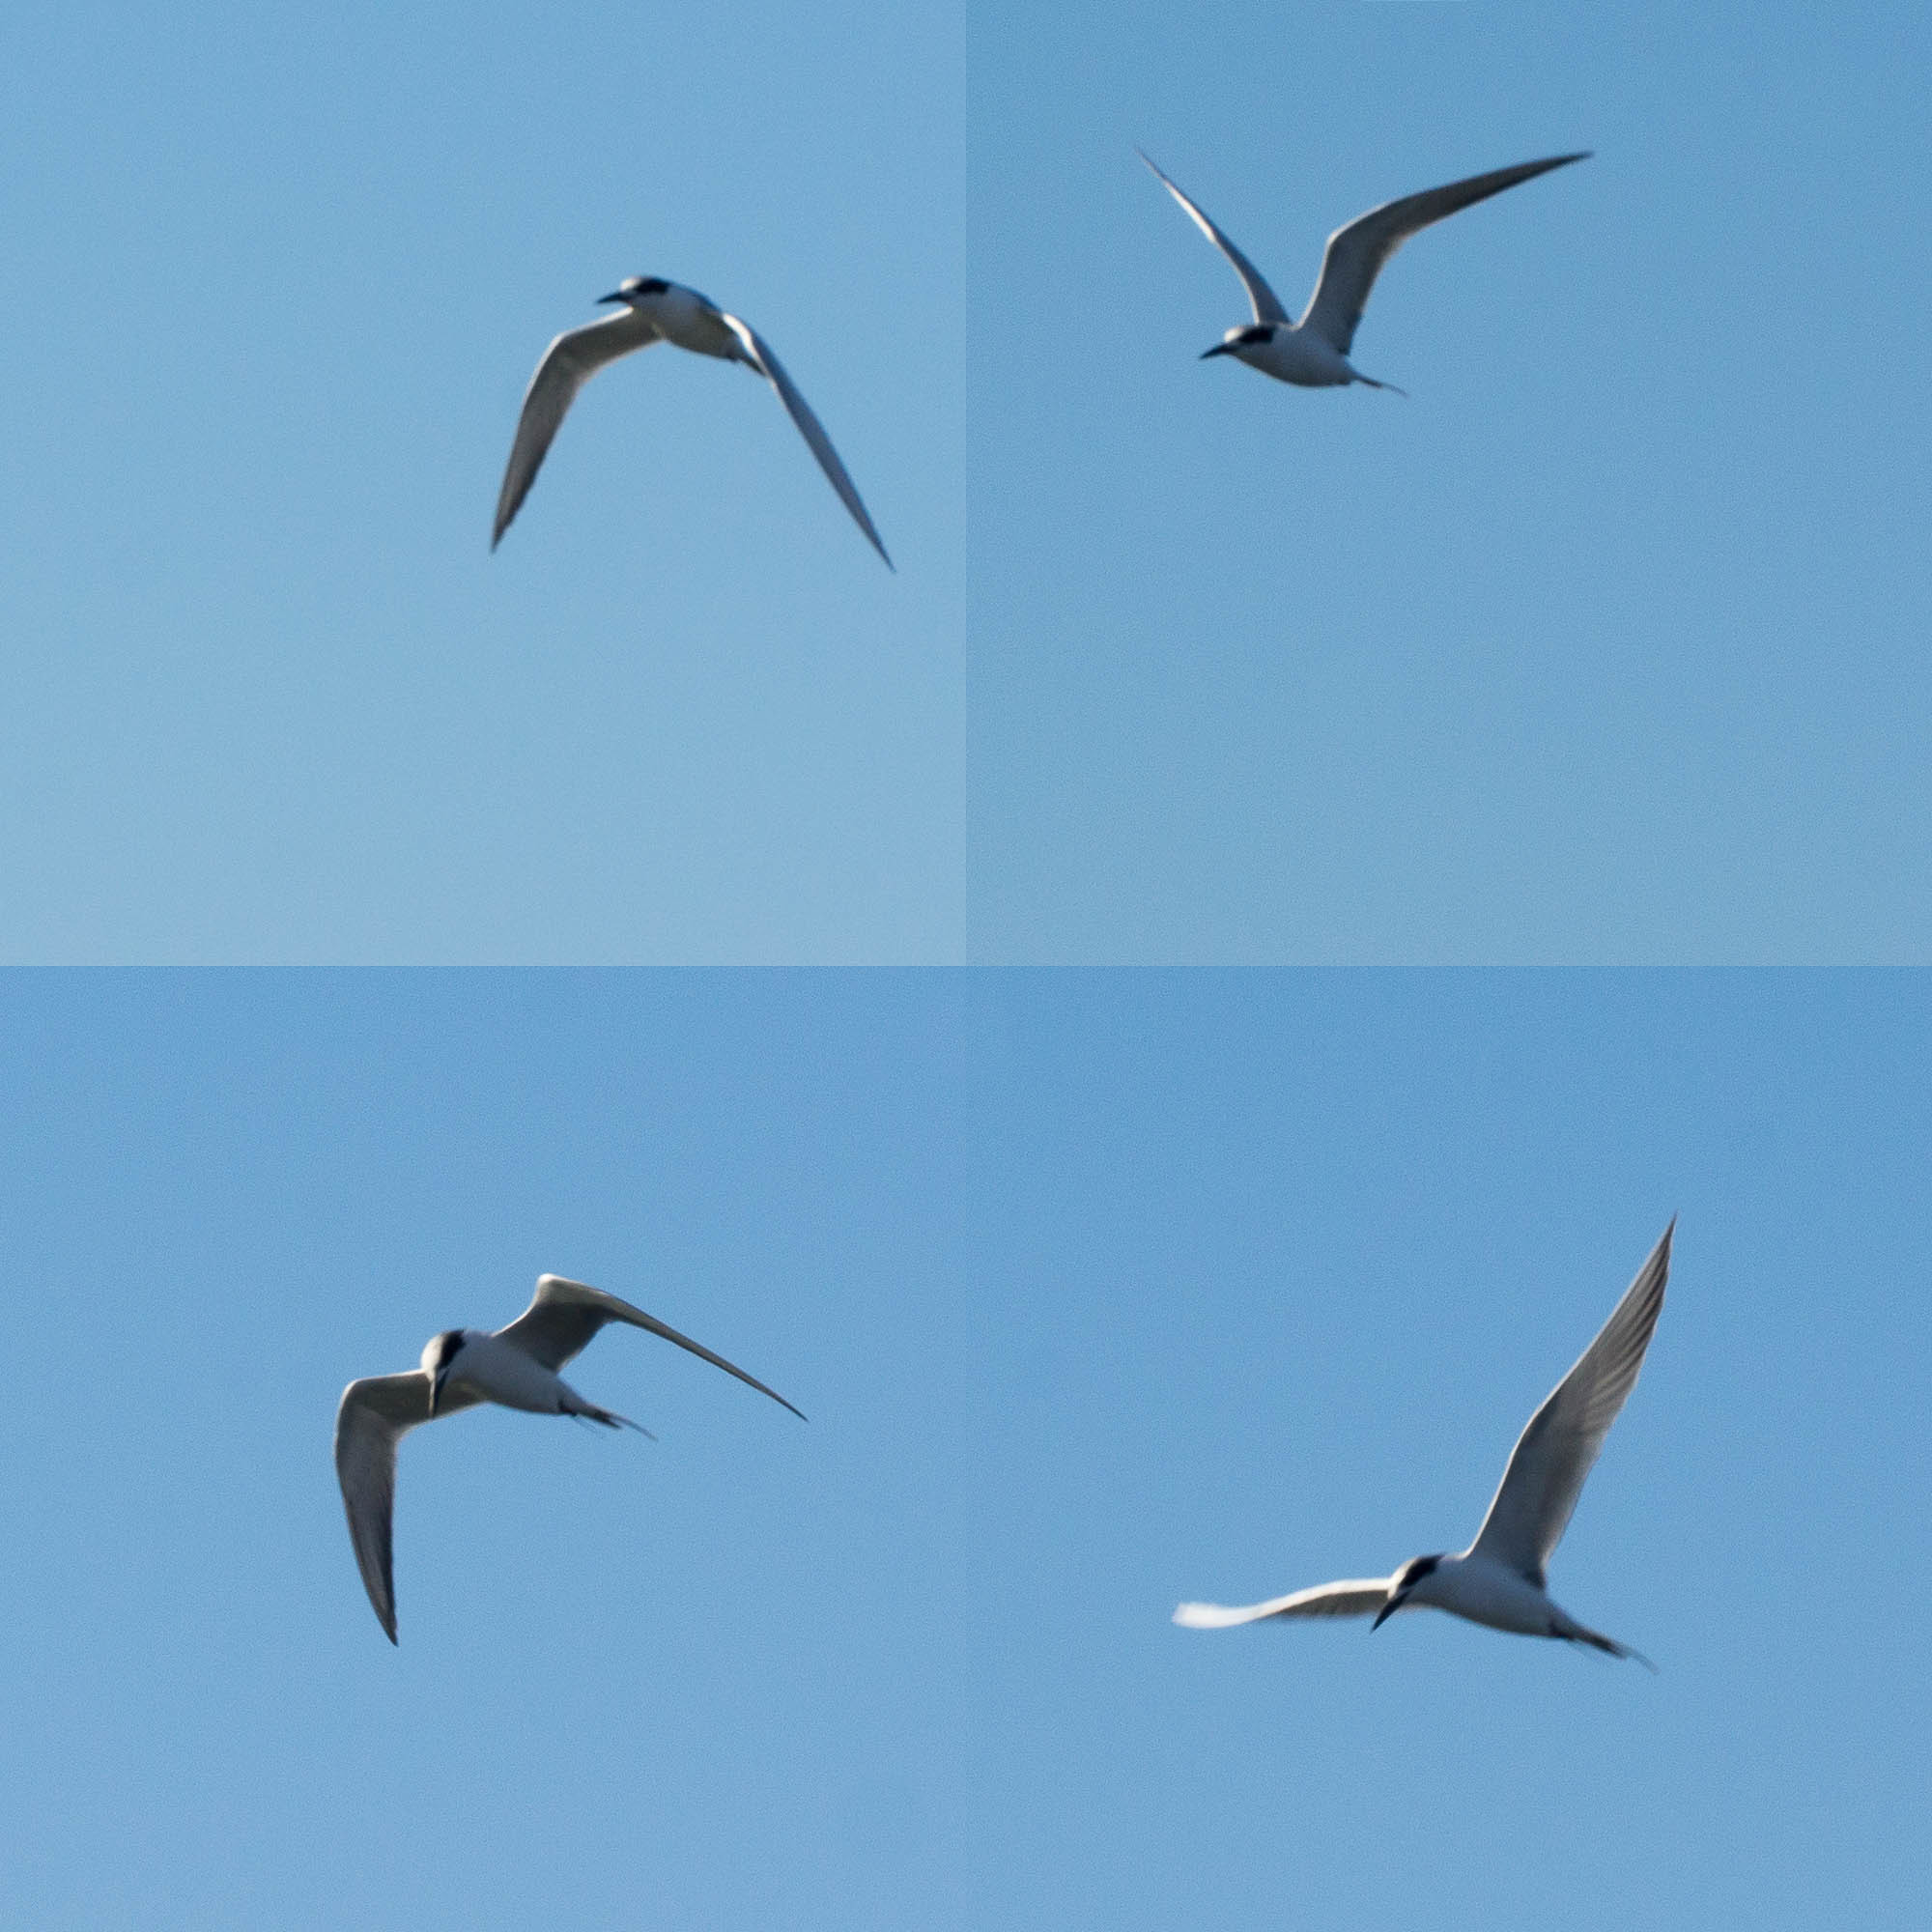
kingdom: Animalia
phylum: Chordata
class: Aves
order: Charadriiformes
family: Laridae
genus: Sterna
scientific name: Sterna forsteri
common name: Forster's tern
